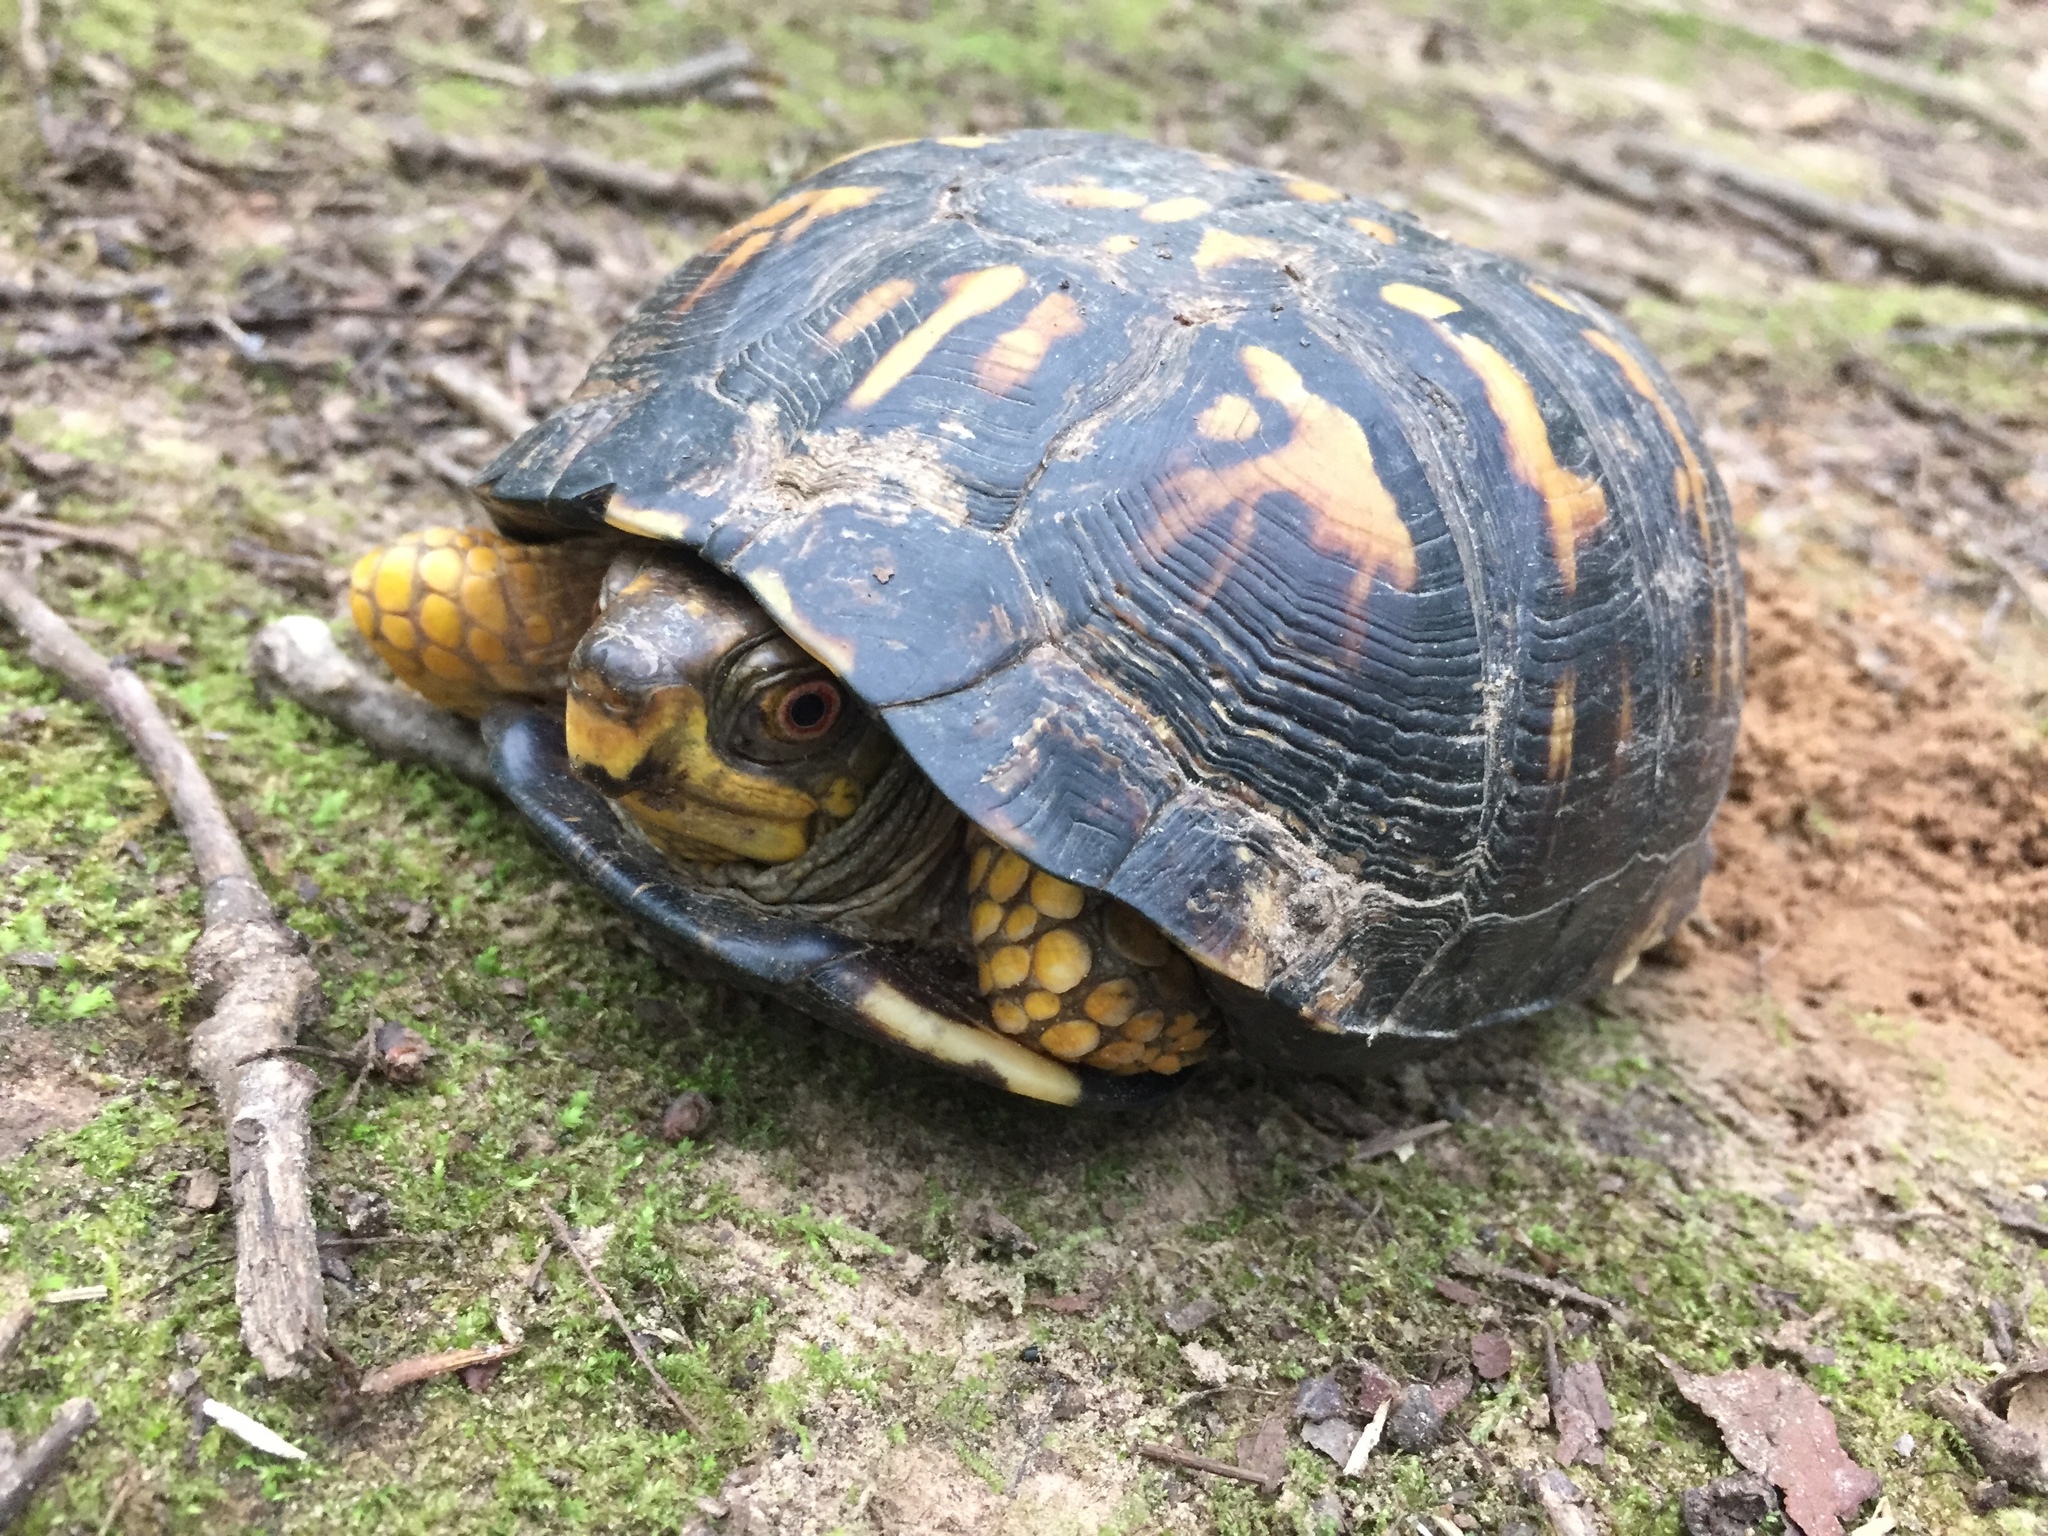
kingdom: Animalia
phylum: Chordata
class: Testudines
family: Emydidae
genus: Terrapene
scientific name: Terrapene carolina
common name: Common box turtle
